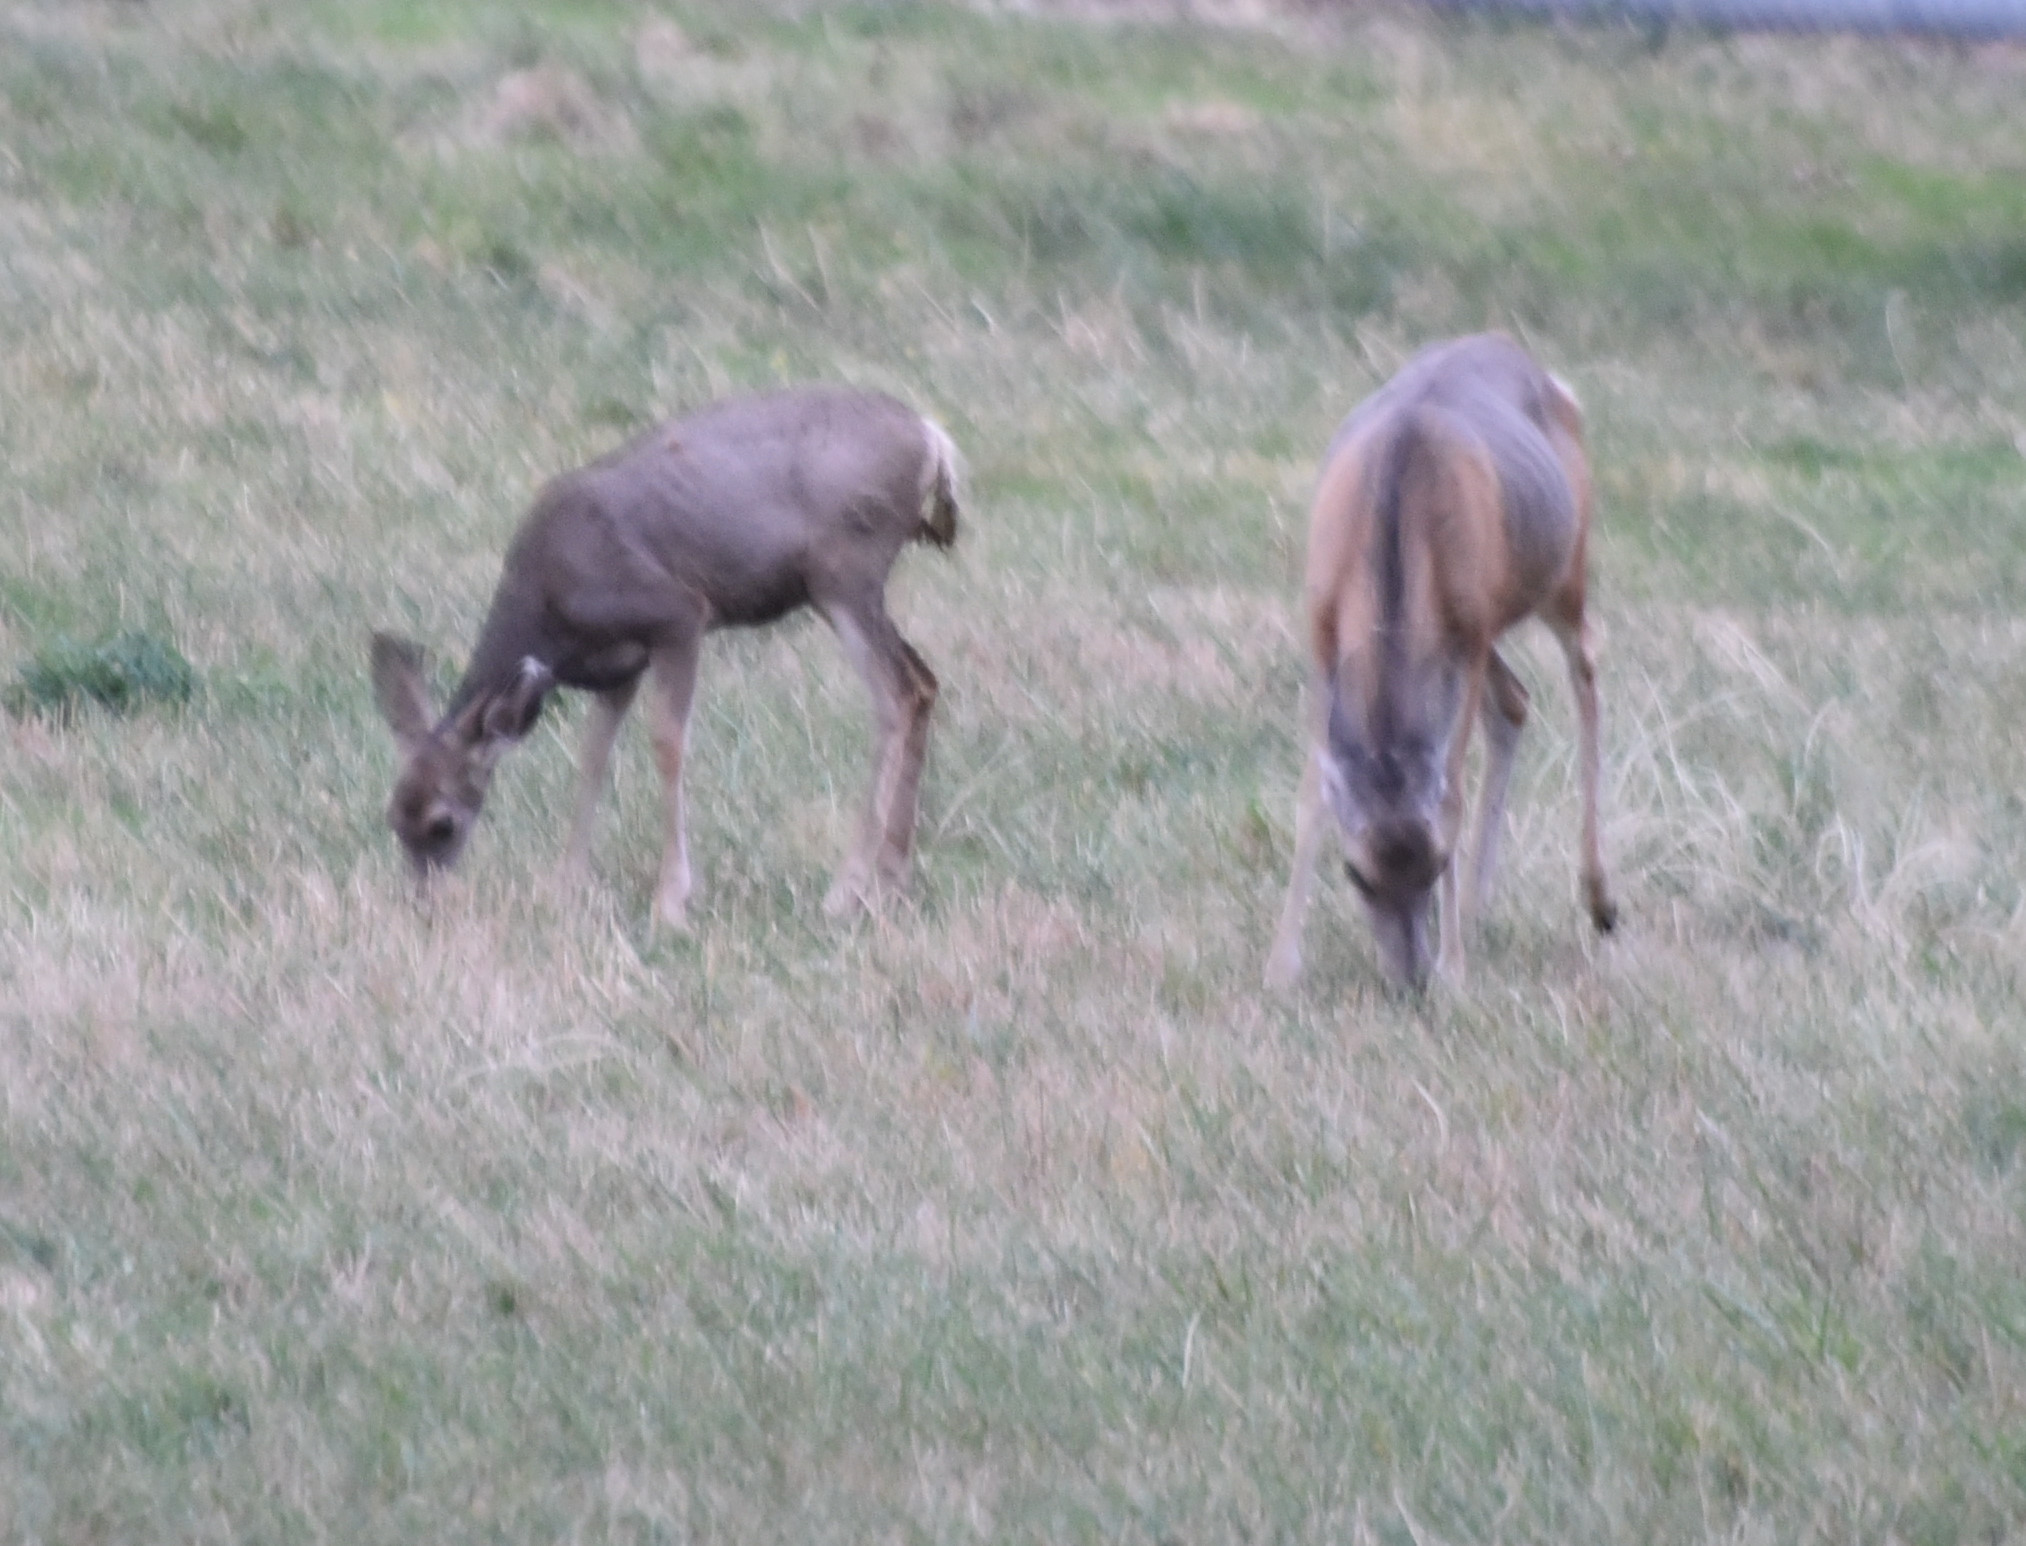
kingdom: Animalia
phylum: Chordata
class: Mammalia
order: Artiodactyla
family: Cervidae
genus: Odocoileus
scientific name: Odocoileus hemionus
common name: Mule deer
